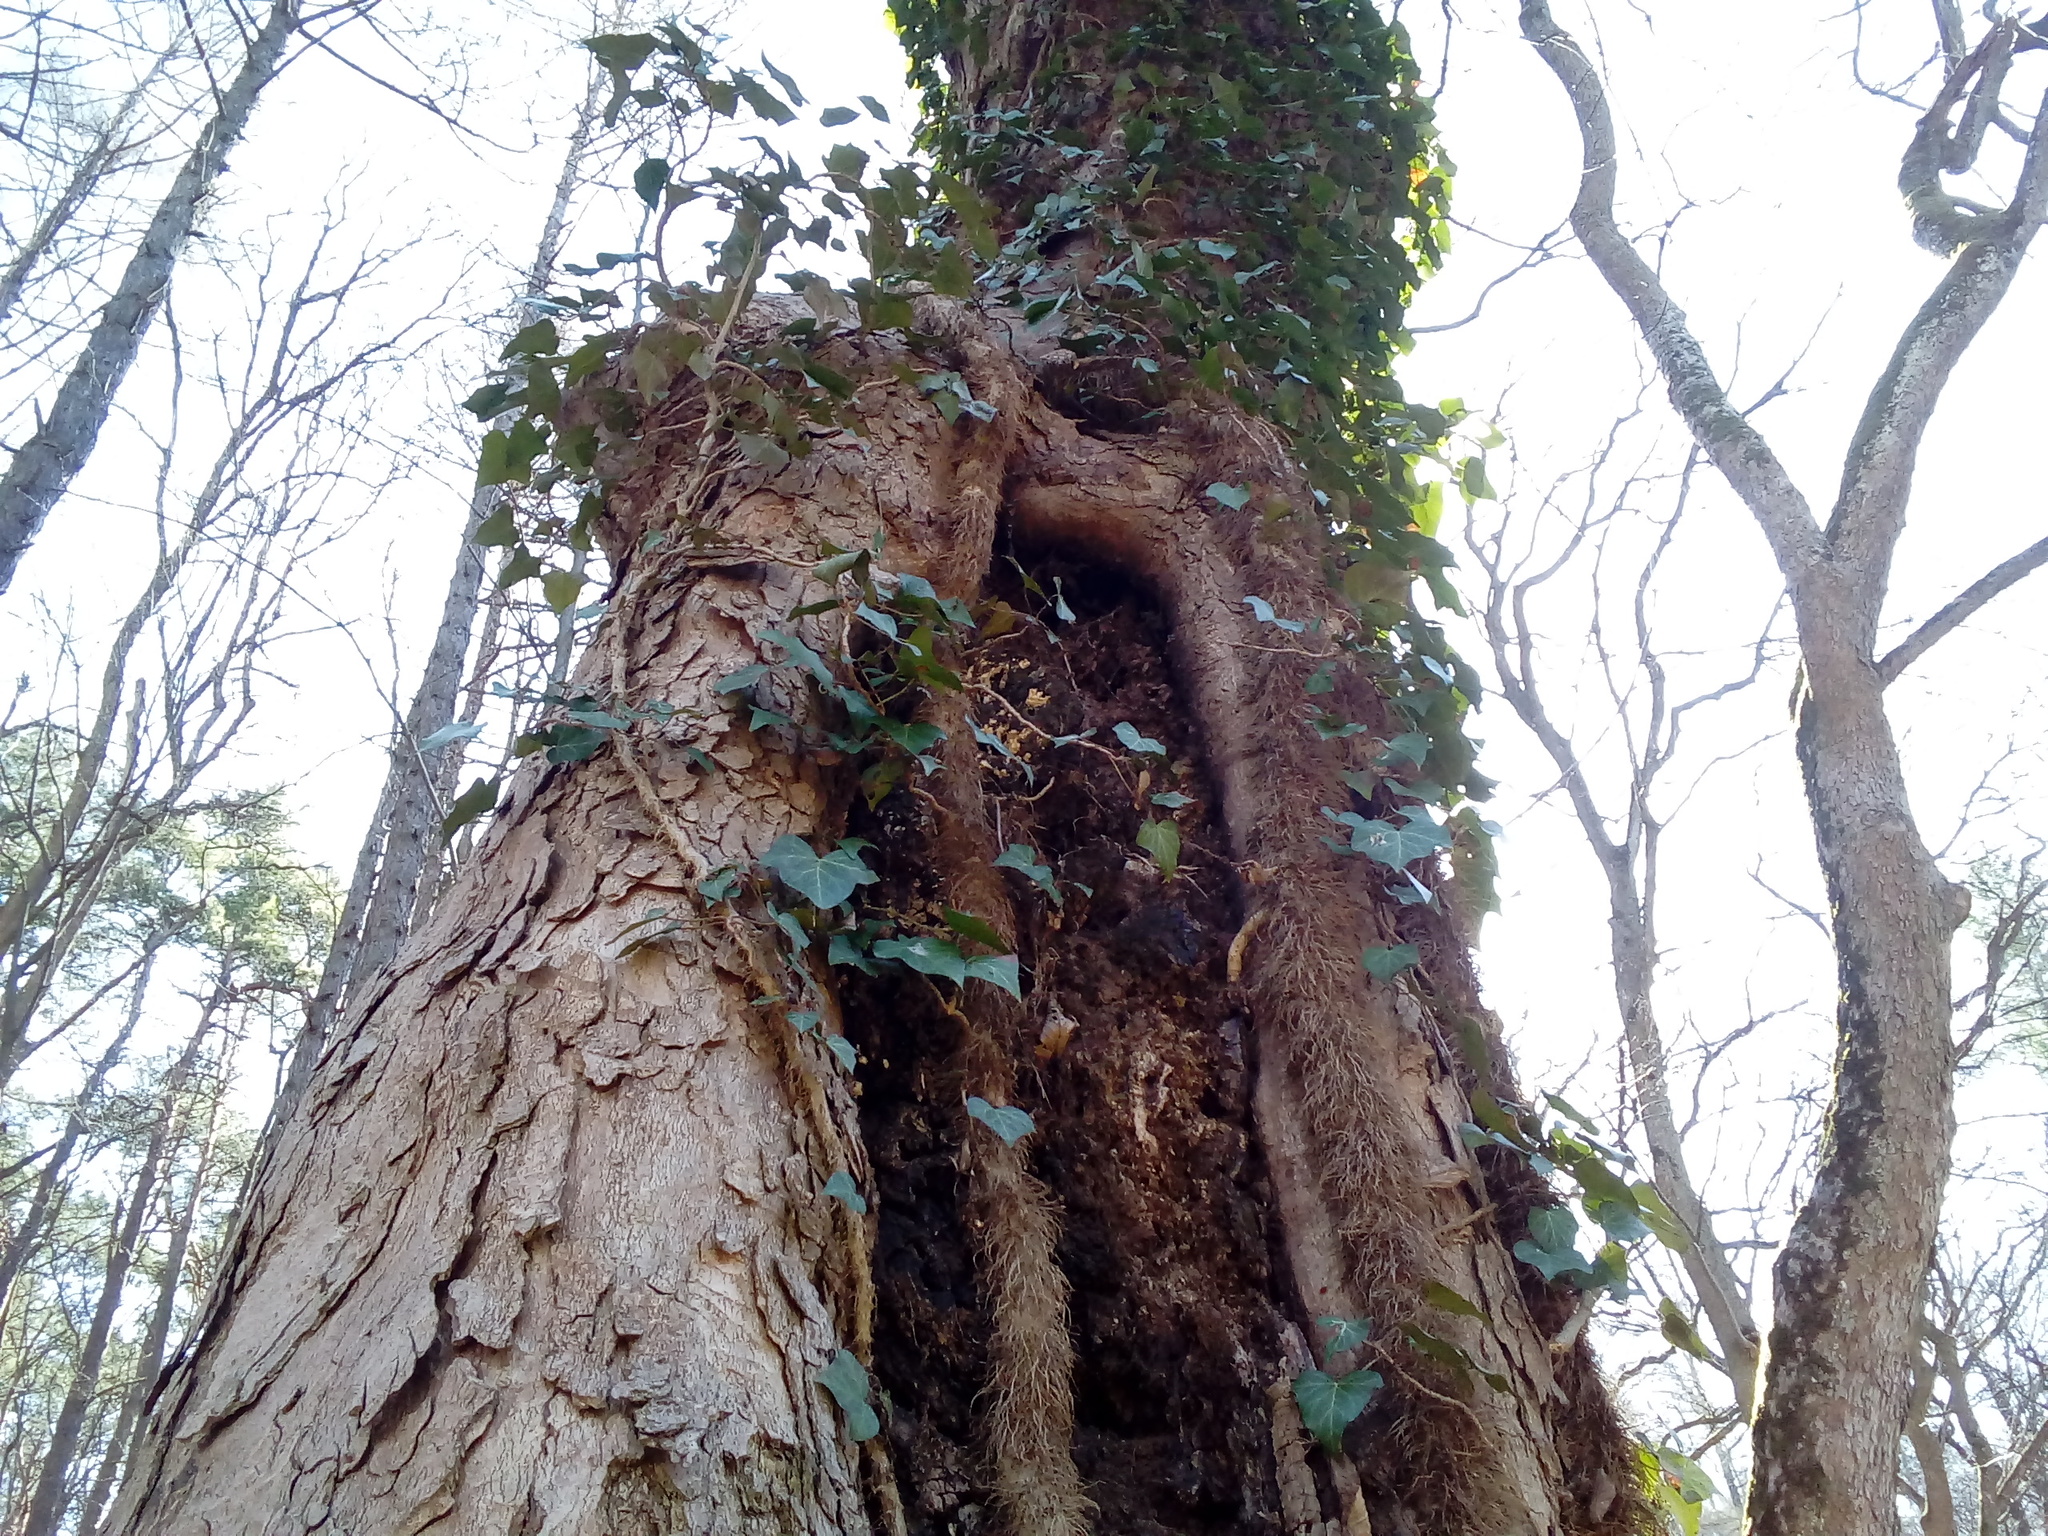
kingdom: Plantae
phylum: Tracheophyta
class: Magnoliopsida
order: Apiales
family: Araliaceae
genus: Hedera
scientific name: Hedera helix
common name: Ivy
